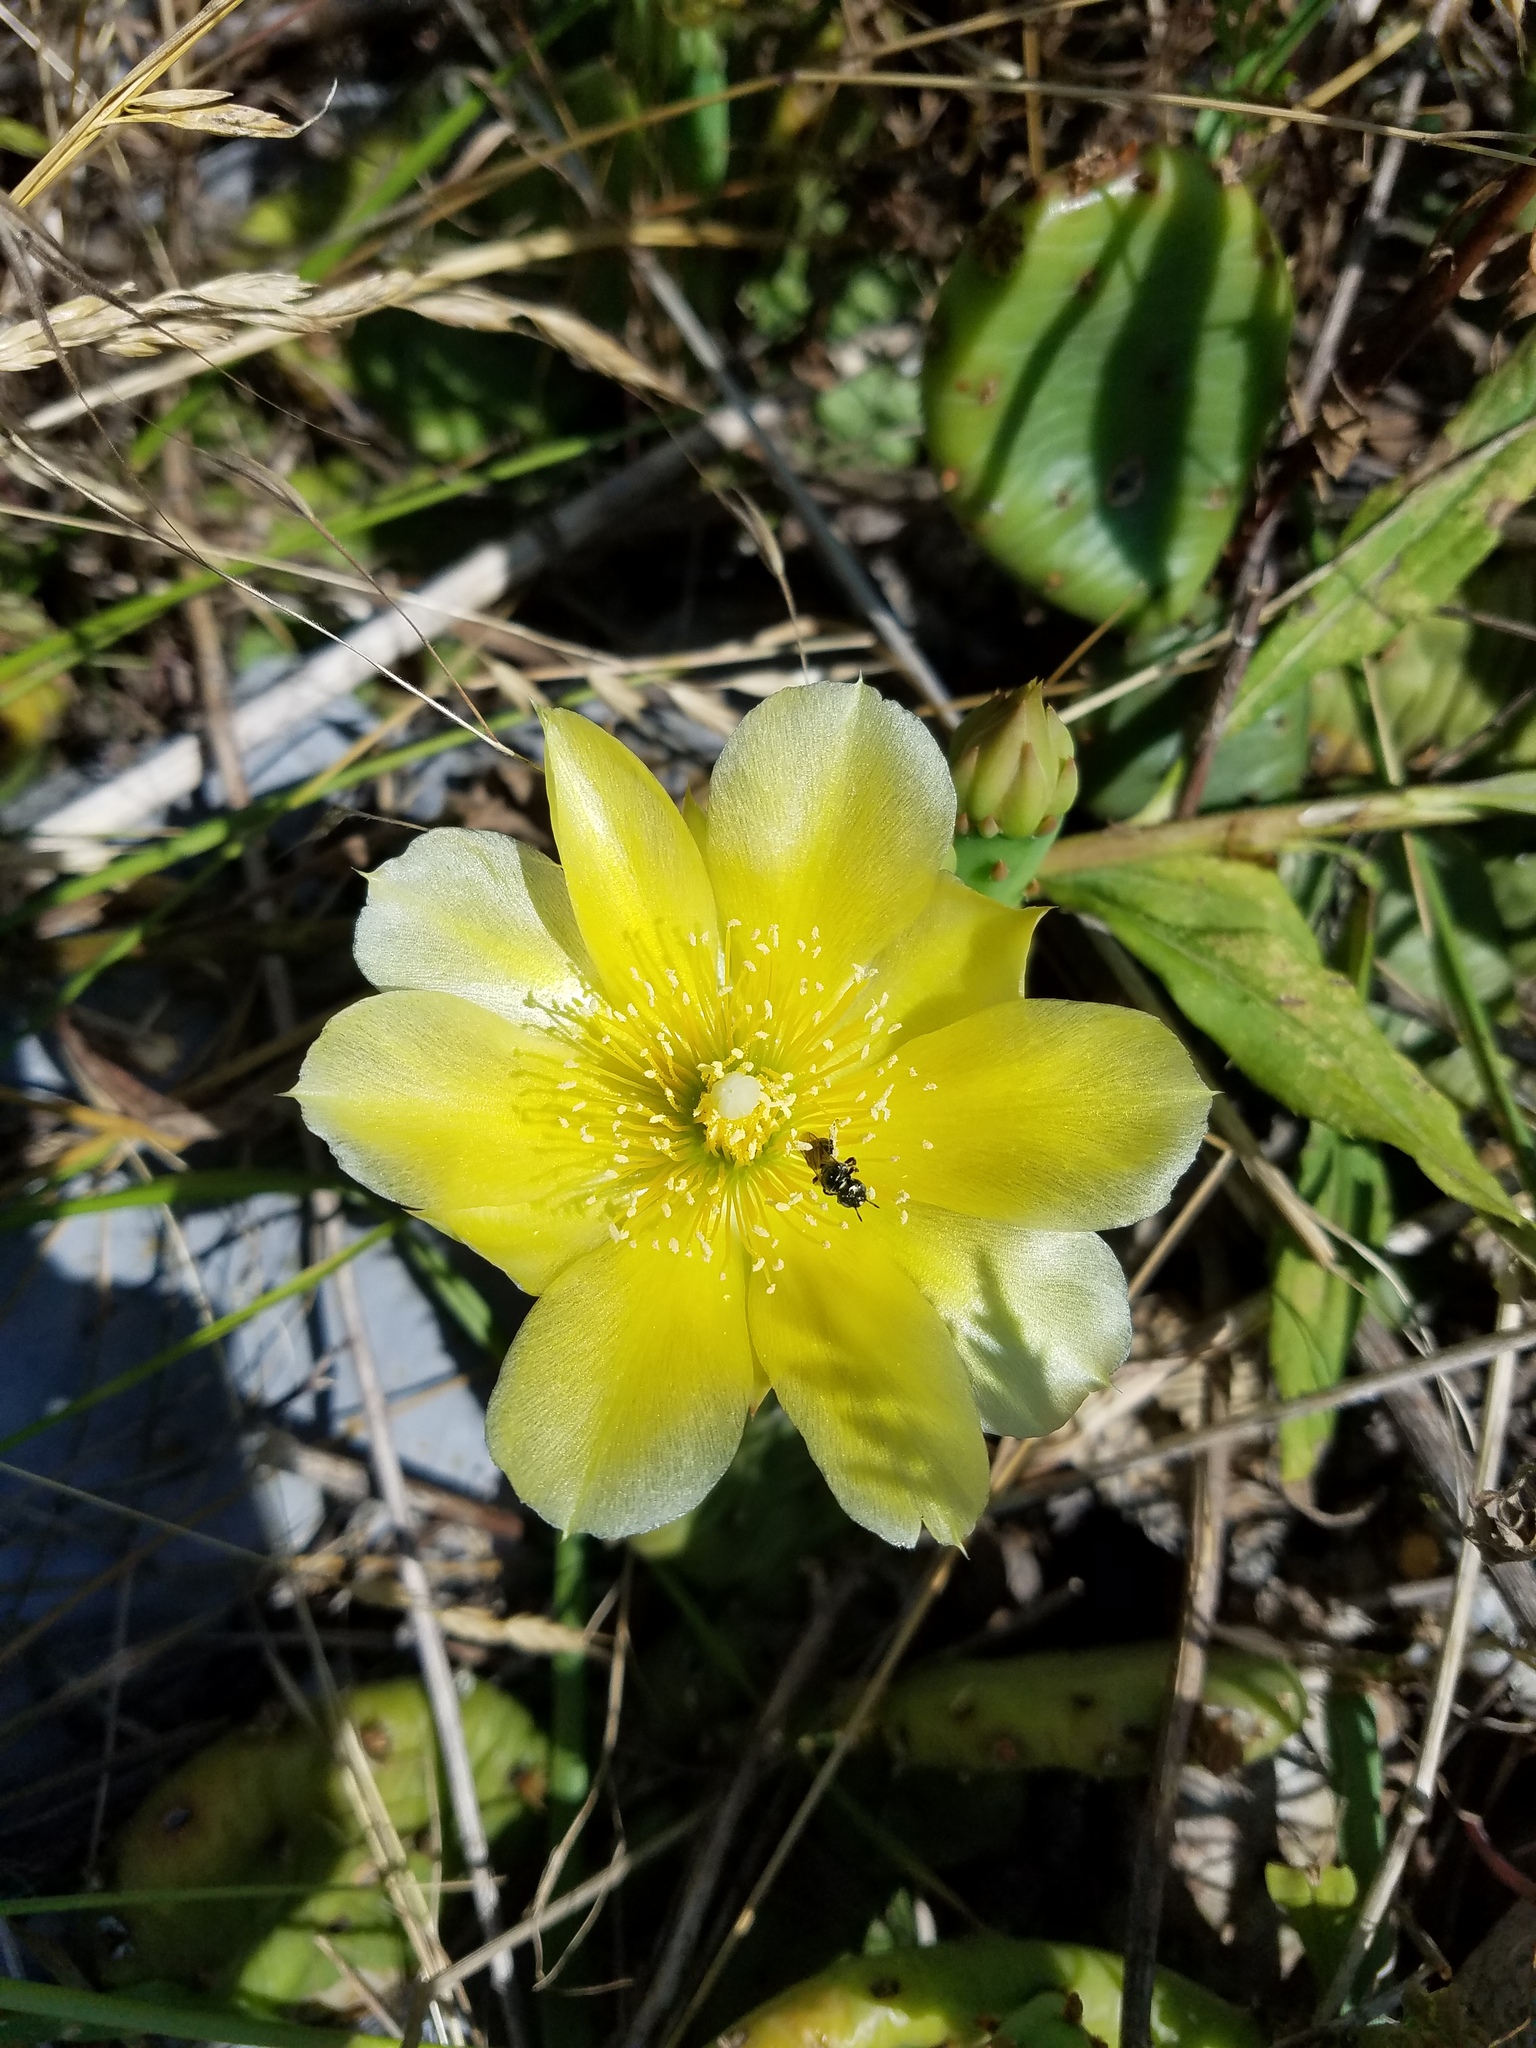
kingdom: Plantae
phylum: Tracheophyta
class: Magnoliopsida
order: Caryophyllales
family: Cactaceae
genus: Opuntia
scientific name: Opuntia humifusa
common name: Eastern prickly-pear
